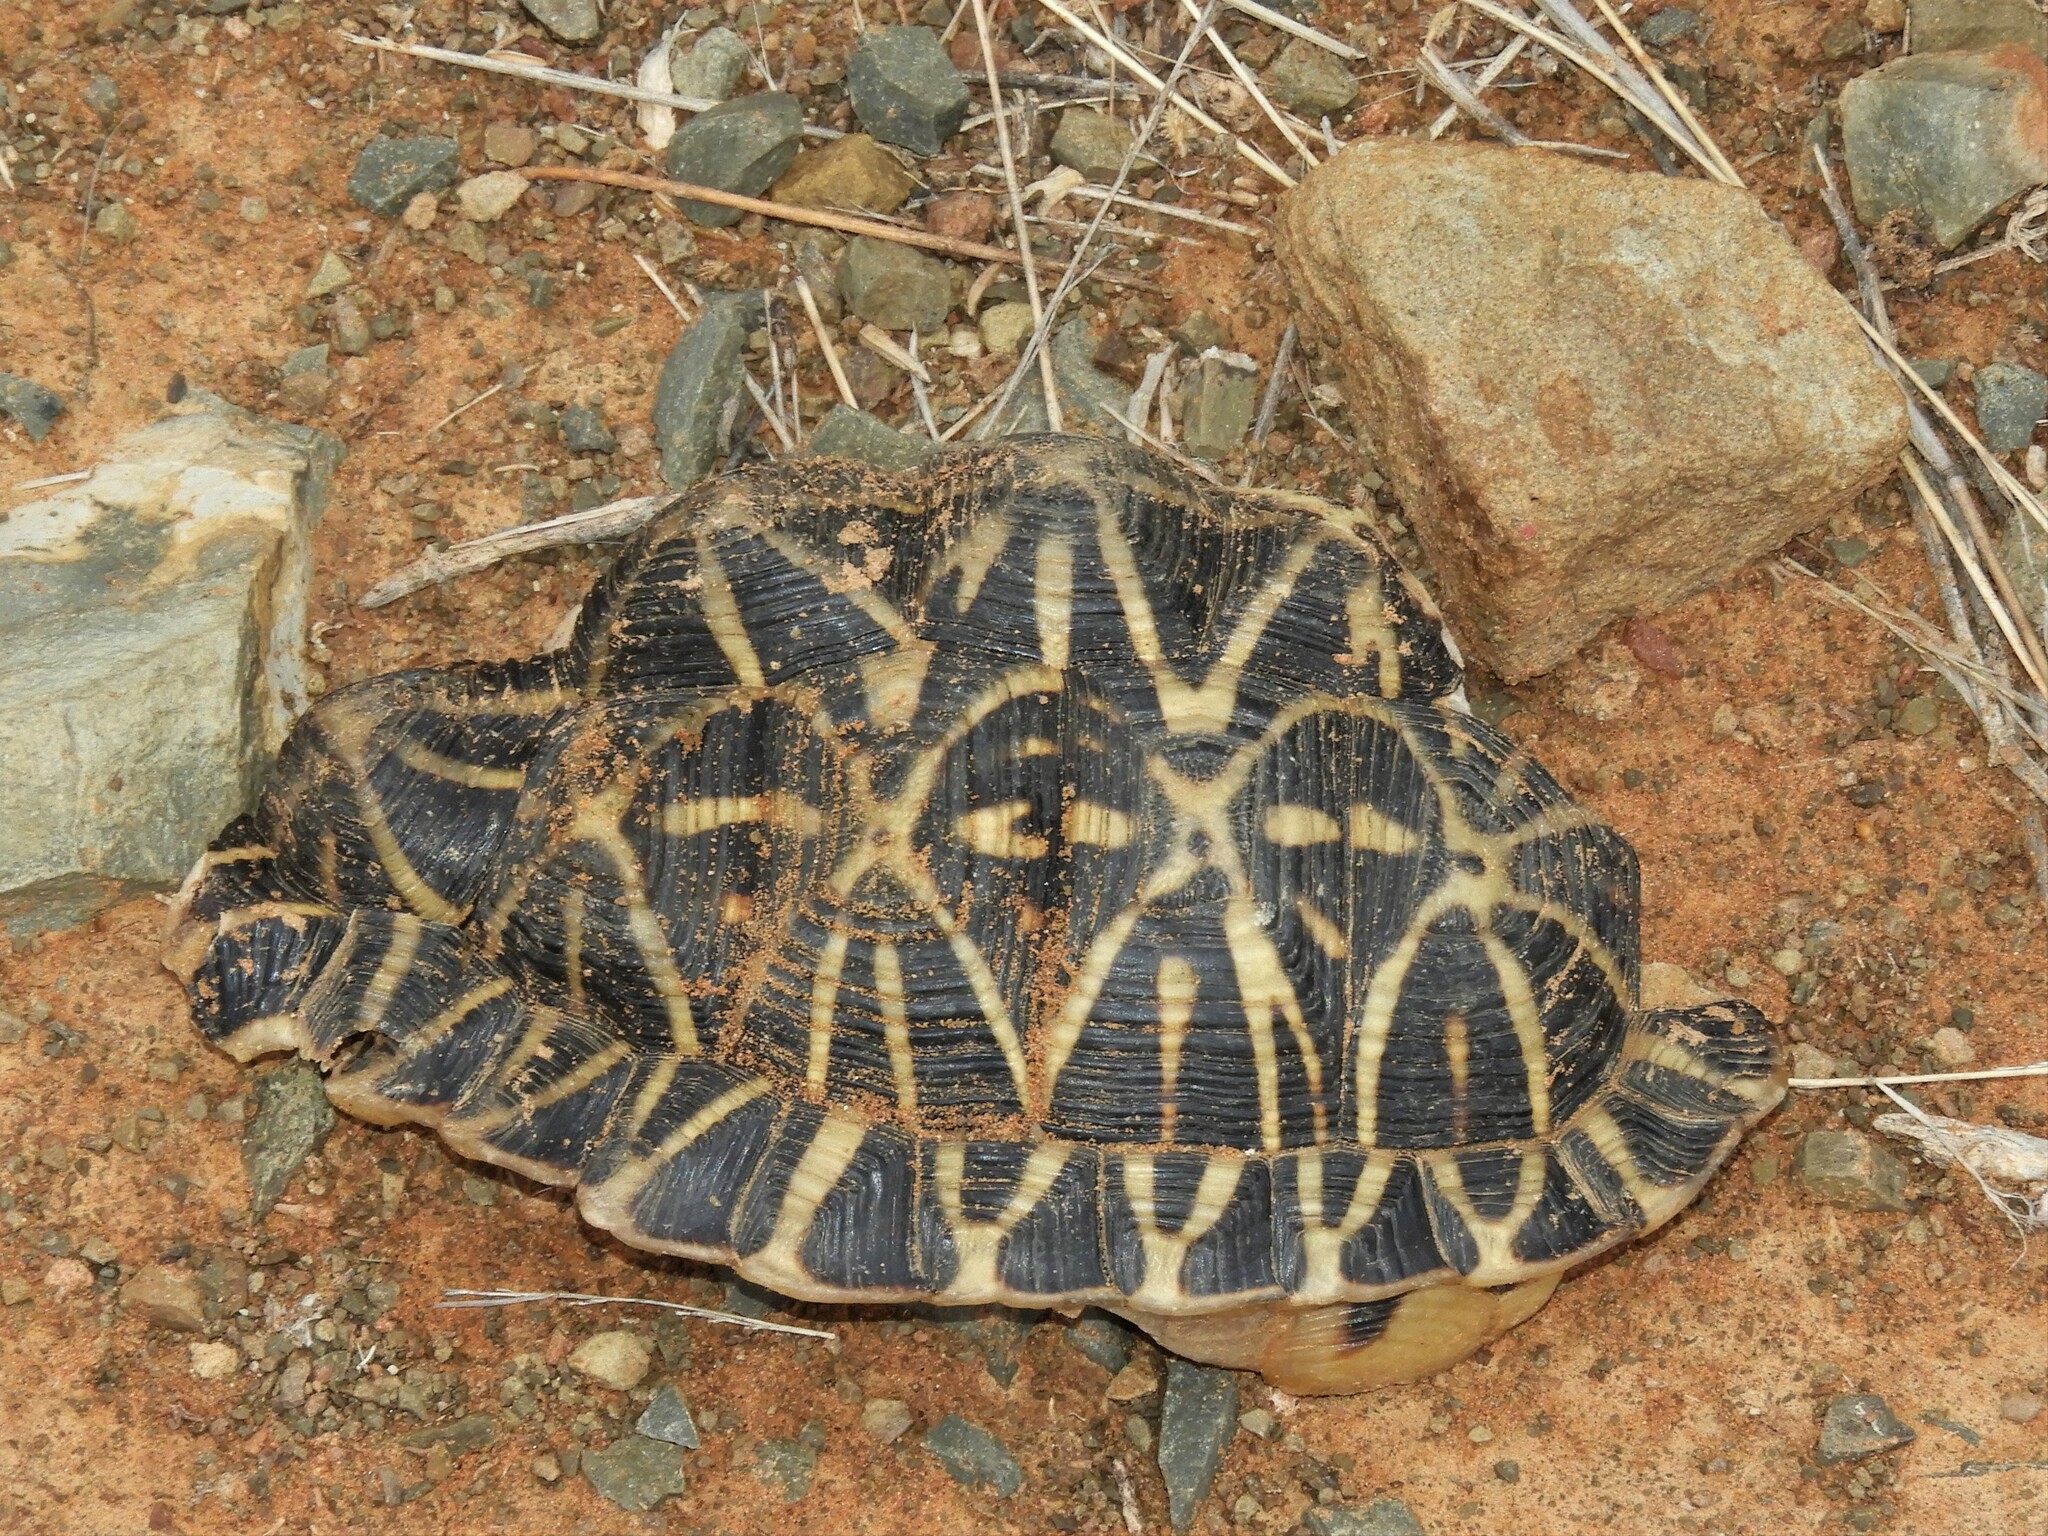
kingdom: Animalia
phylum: Chordata
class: Testudines
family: Testudinidae
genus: Psammobates
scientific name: Psammobates tentorius
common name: Tent tortoise
